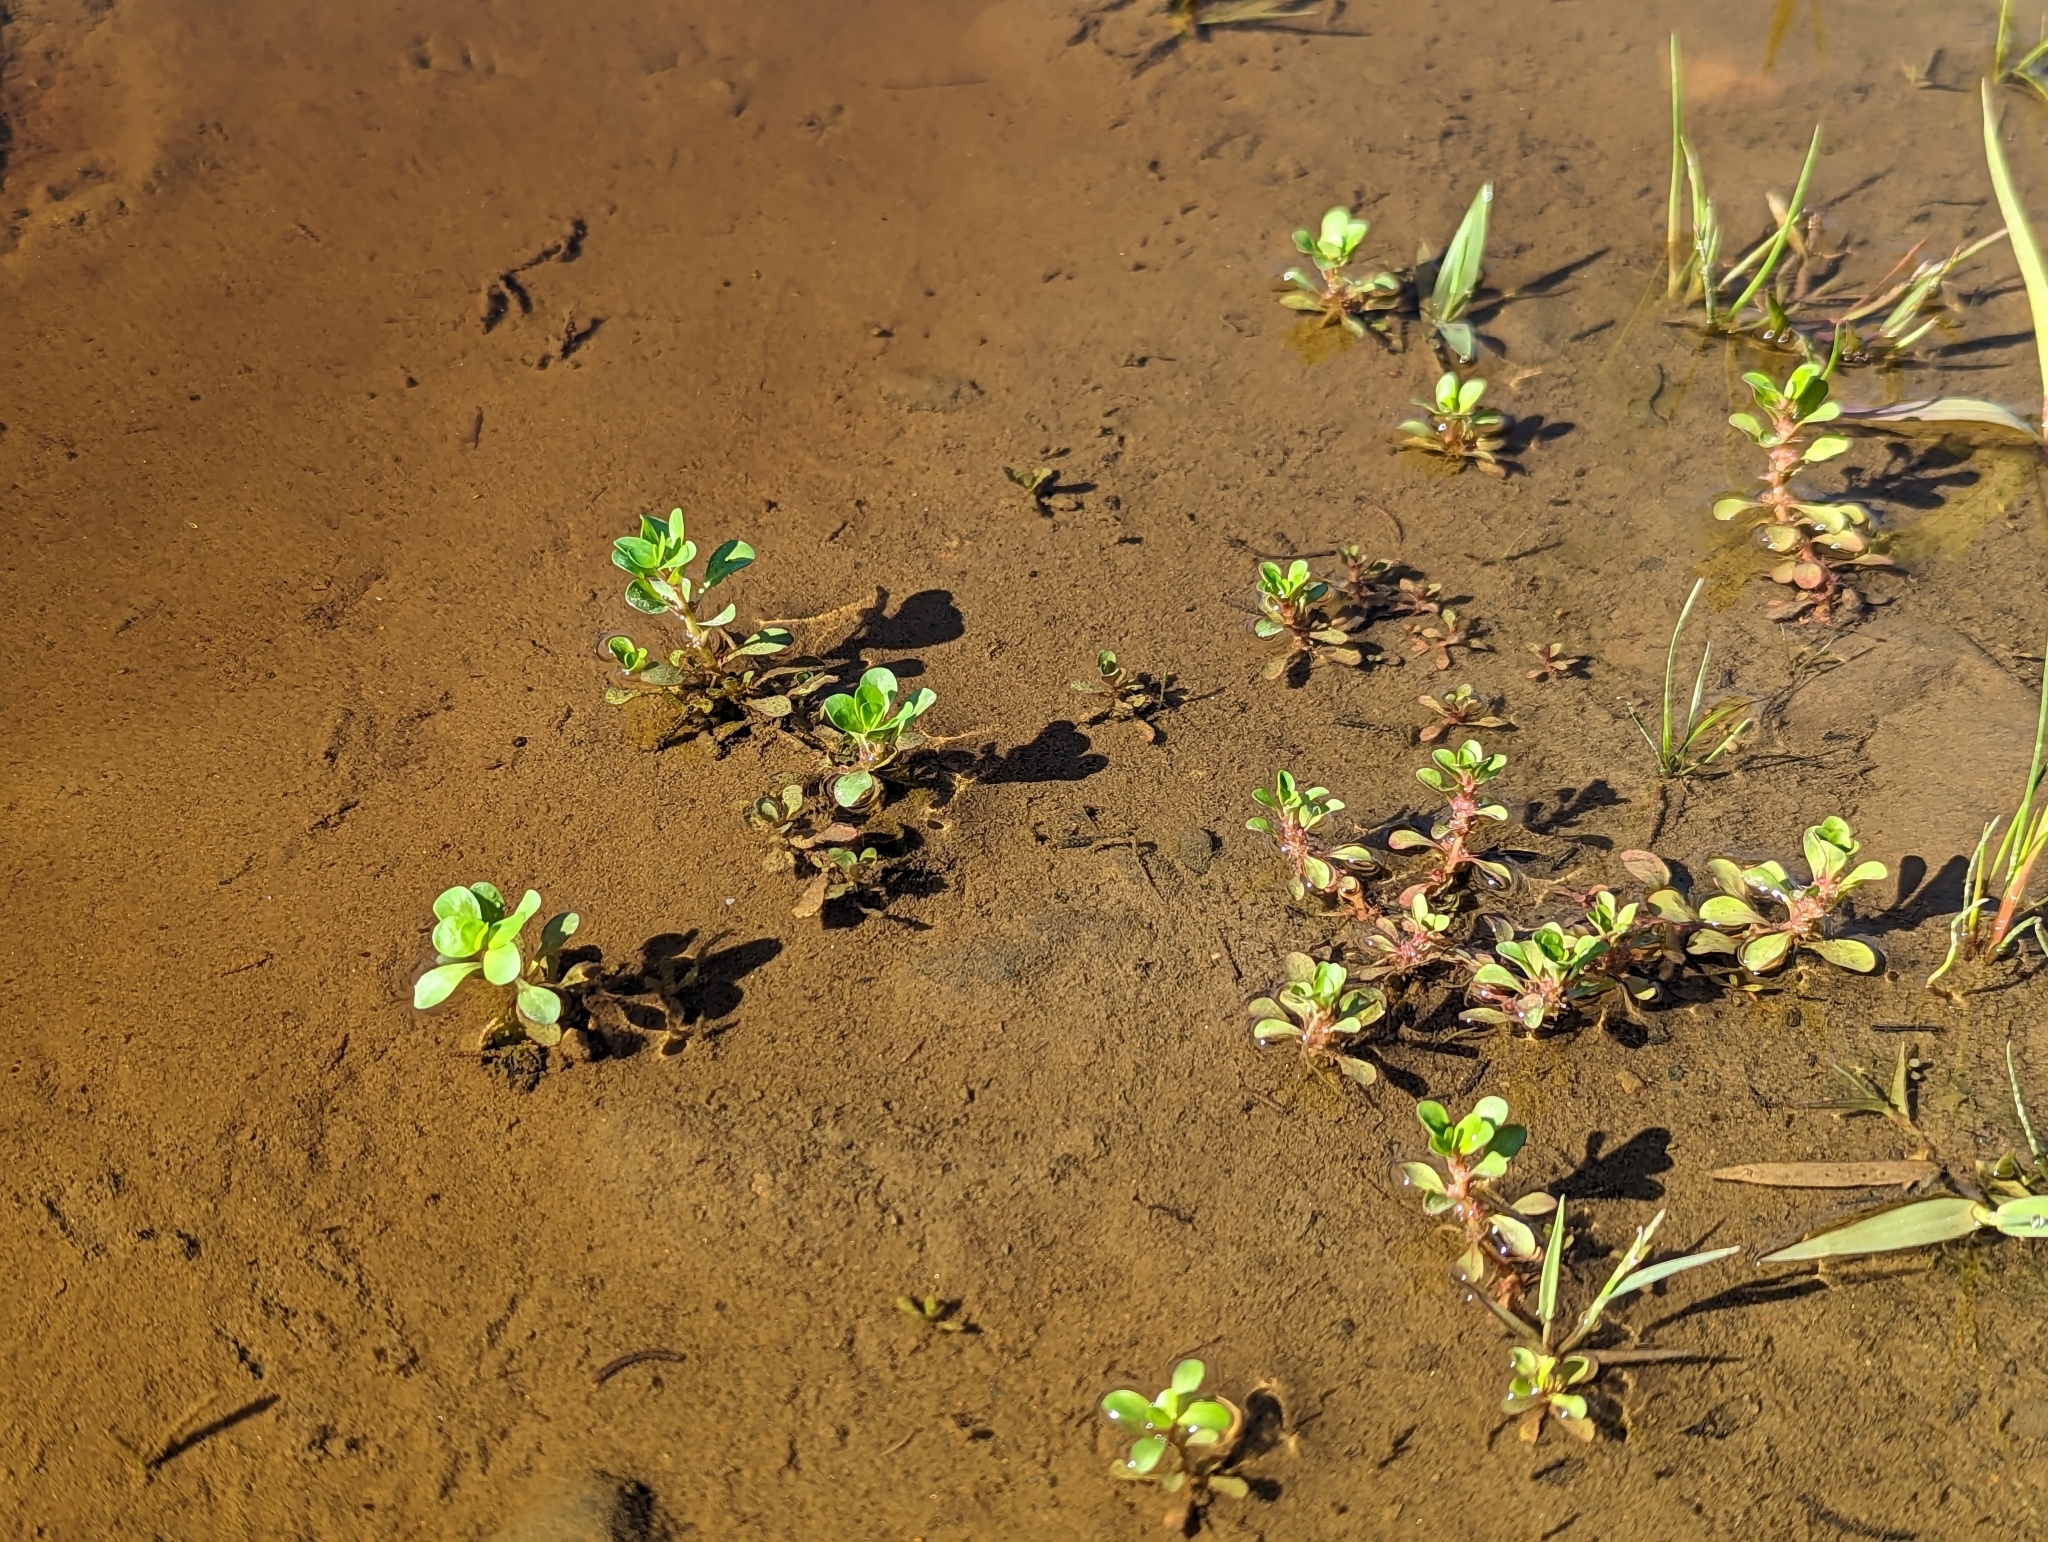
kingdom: Plantae
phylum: Tracheophyta
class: Magnoliopsida
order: Myrtales
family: Lythraceae
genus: Lythrum
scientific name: Lythrum portula
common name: Water purslane
